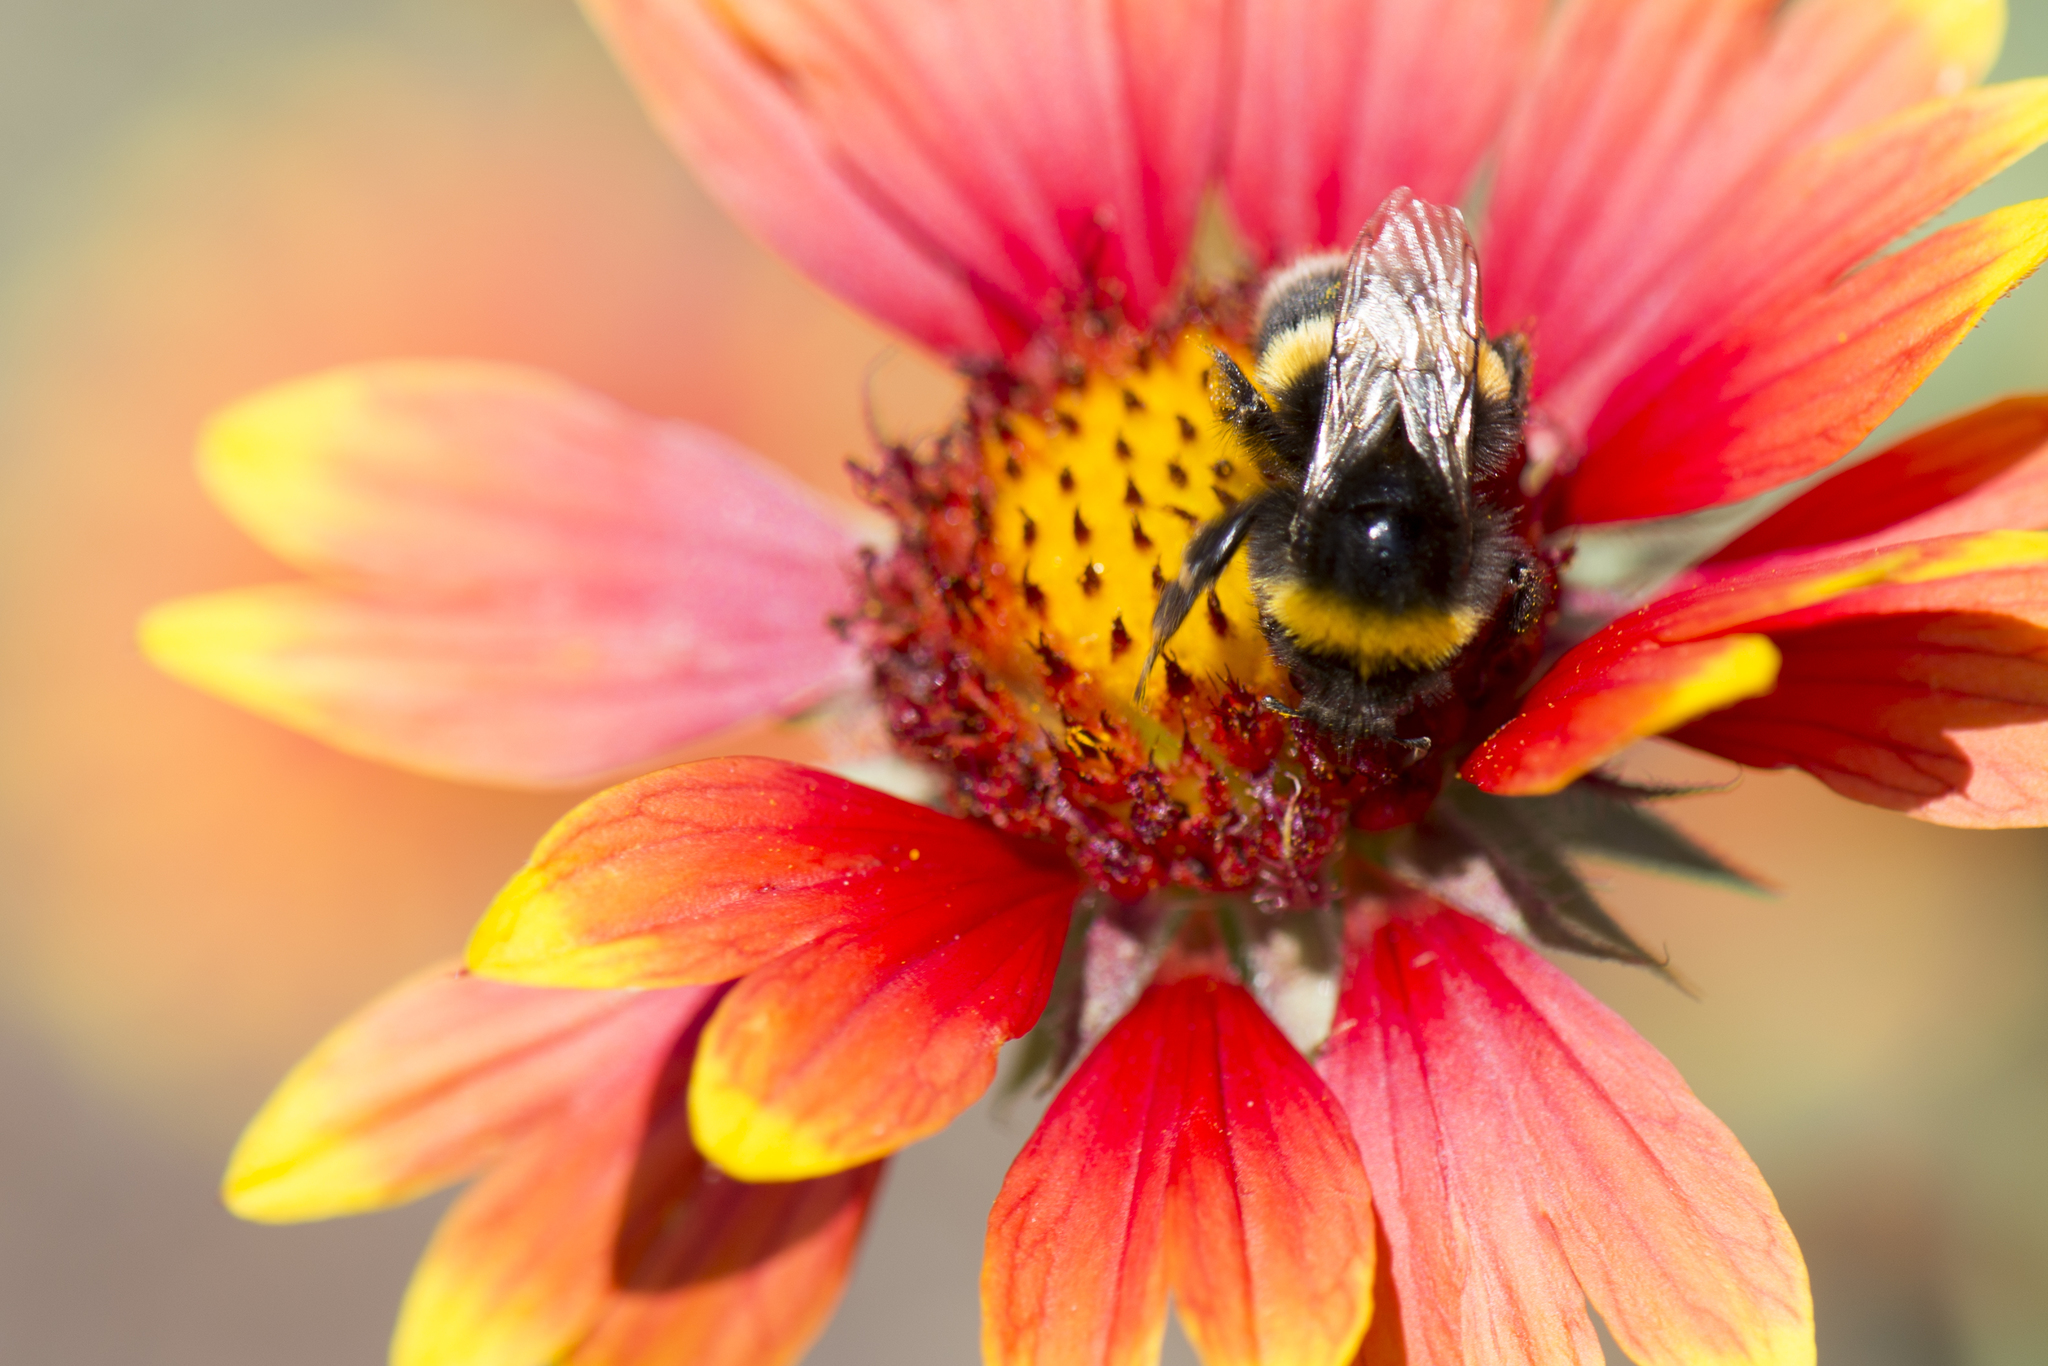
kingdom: Animalia
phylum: Arthropoda
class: Insecta
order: Hymenoptera
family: Apidae
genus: Bombus
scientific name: Bombus terrestris
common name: Buff-tailed bumblebee
